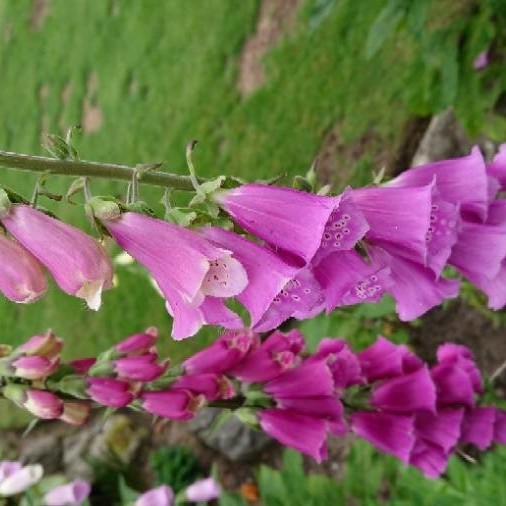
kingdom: Plantae
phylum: Tracheophyta
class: Magnoliopsida
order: Lamiales
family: Plantaginaceae
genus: Digitalis
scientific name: Digitalis purpurea
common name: Foxglove
